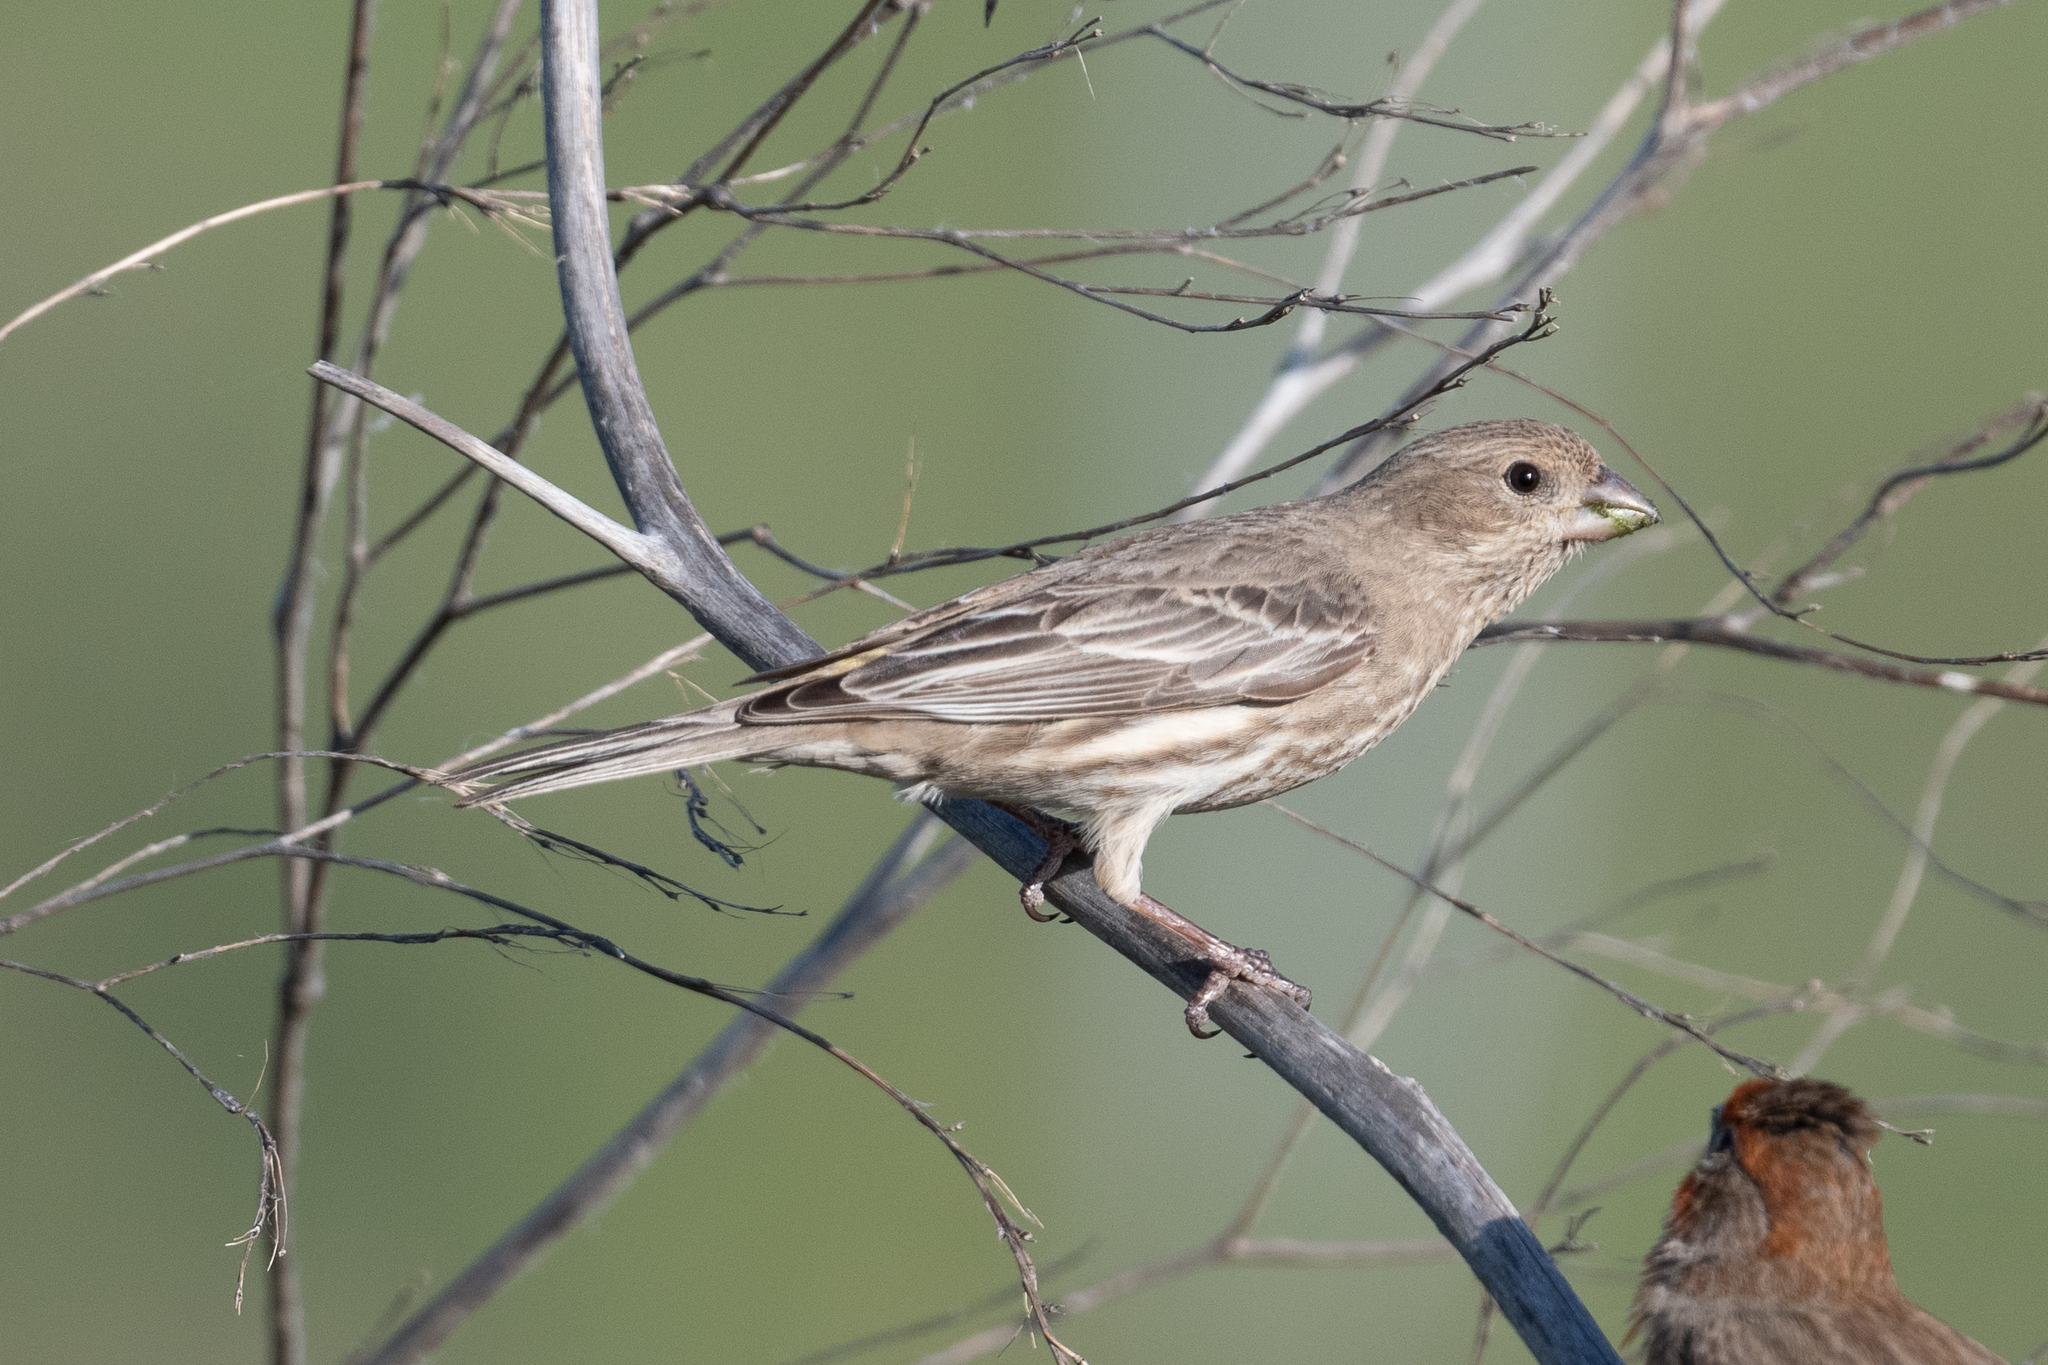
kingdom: Animalia
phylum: Chordata
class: Aves
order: Passeriformes
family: Fringillidae
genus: Haemorhous
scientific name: Haemorhous mexicanus
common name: House finch
